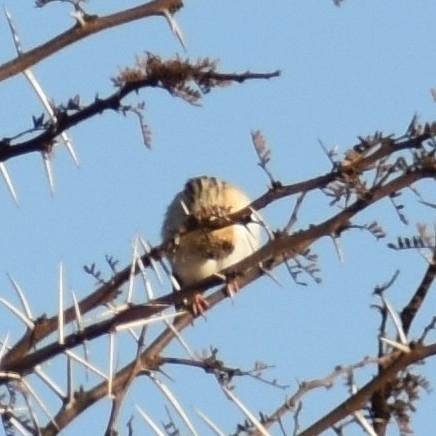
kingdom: Animalia
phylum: Chordata
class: Aves
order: Passeriformes
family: Viduidae
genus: Vidua
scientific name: Vidua regia
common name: Shaft-tailed whydah
